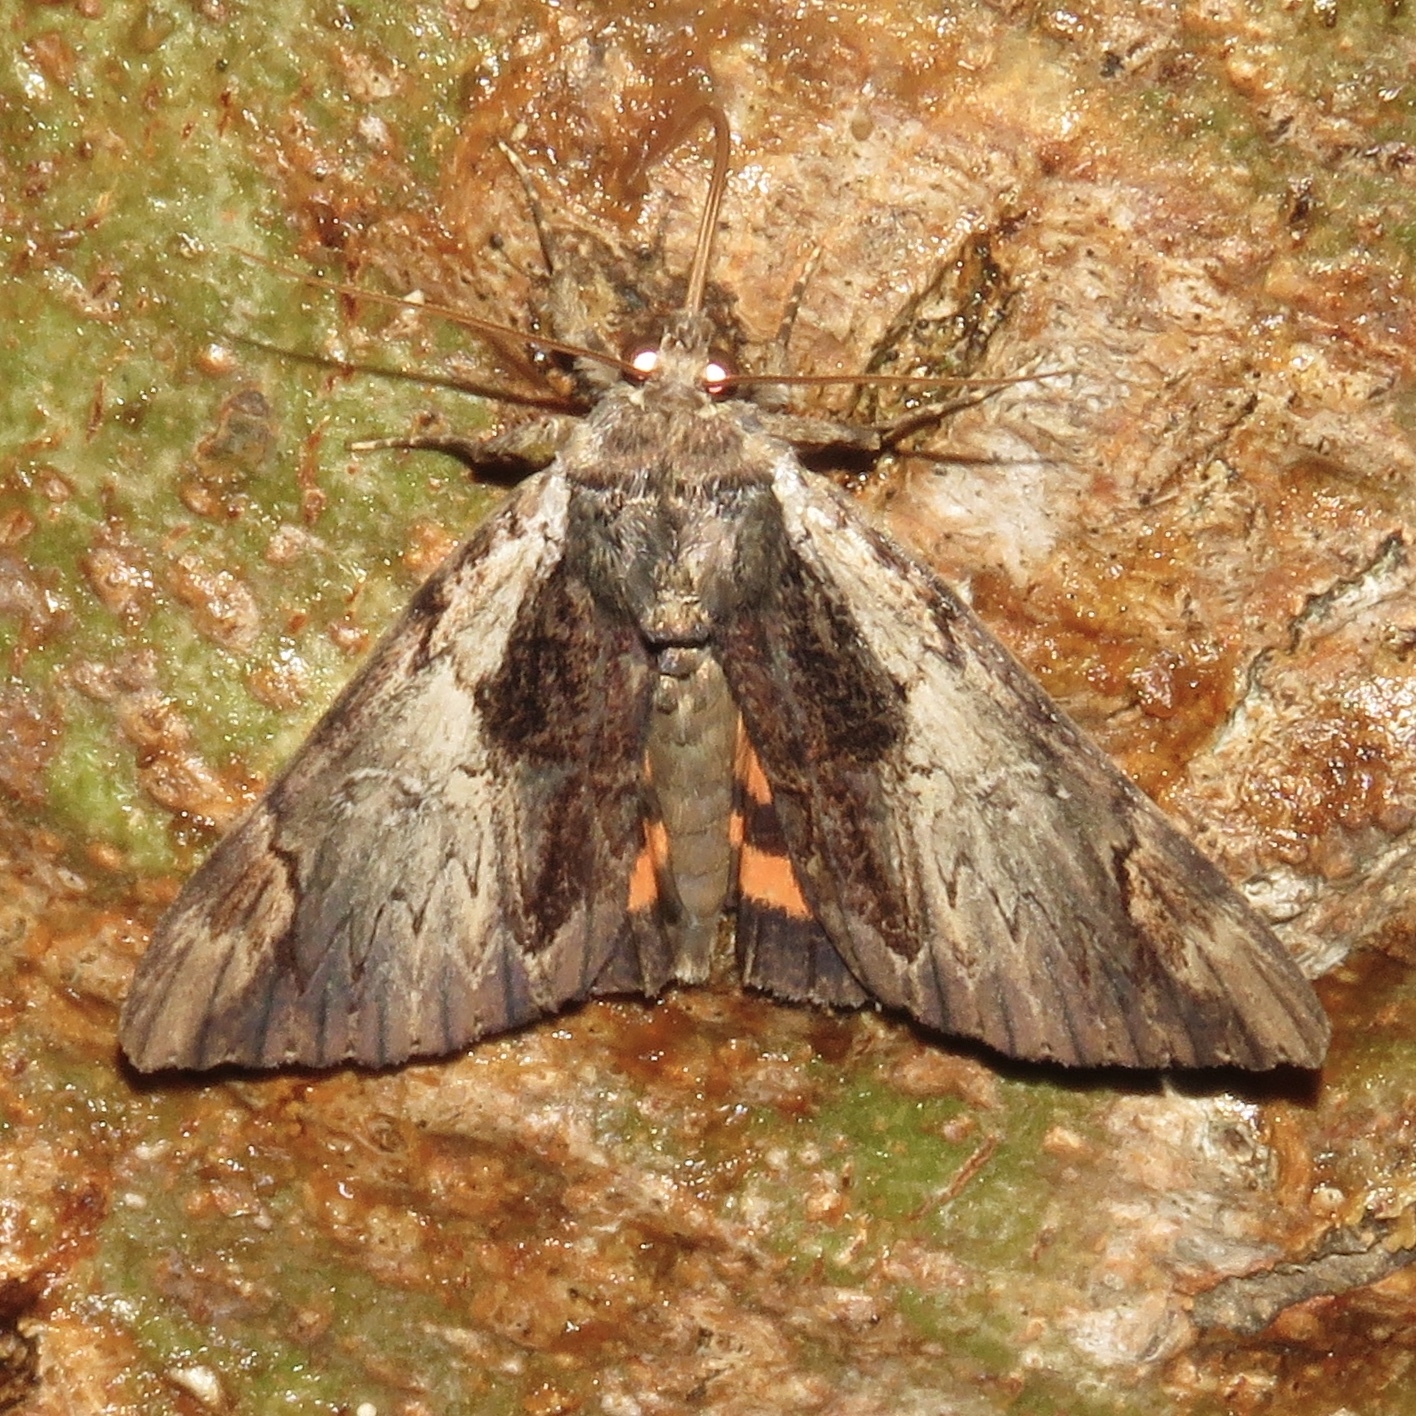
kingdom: Animalia
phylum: Arthropoda
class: Insecta
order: Lepidoptera
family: Erebidae
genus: Catocala
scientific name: Catocala ultronia
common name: Ultronia underwing
